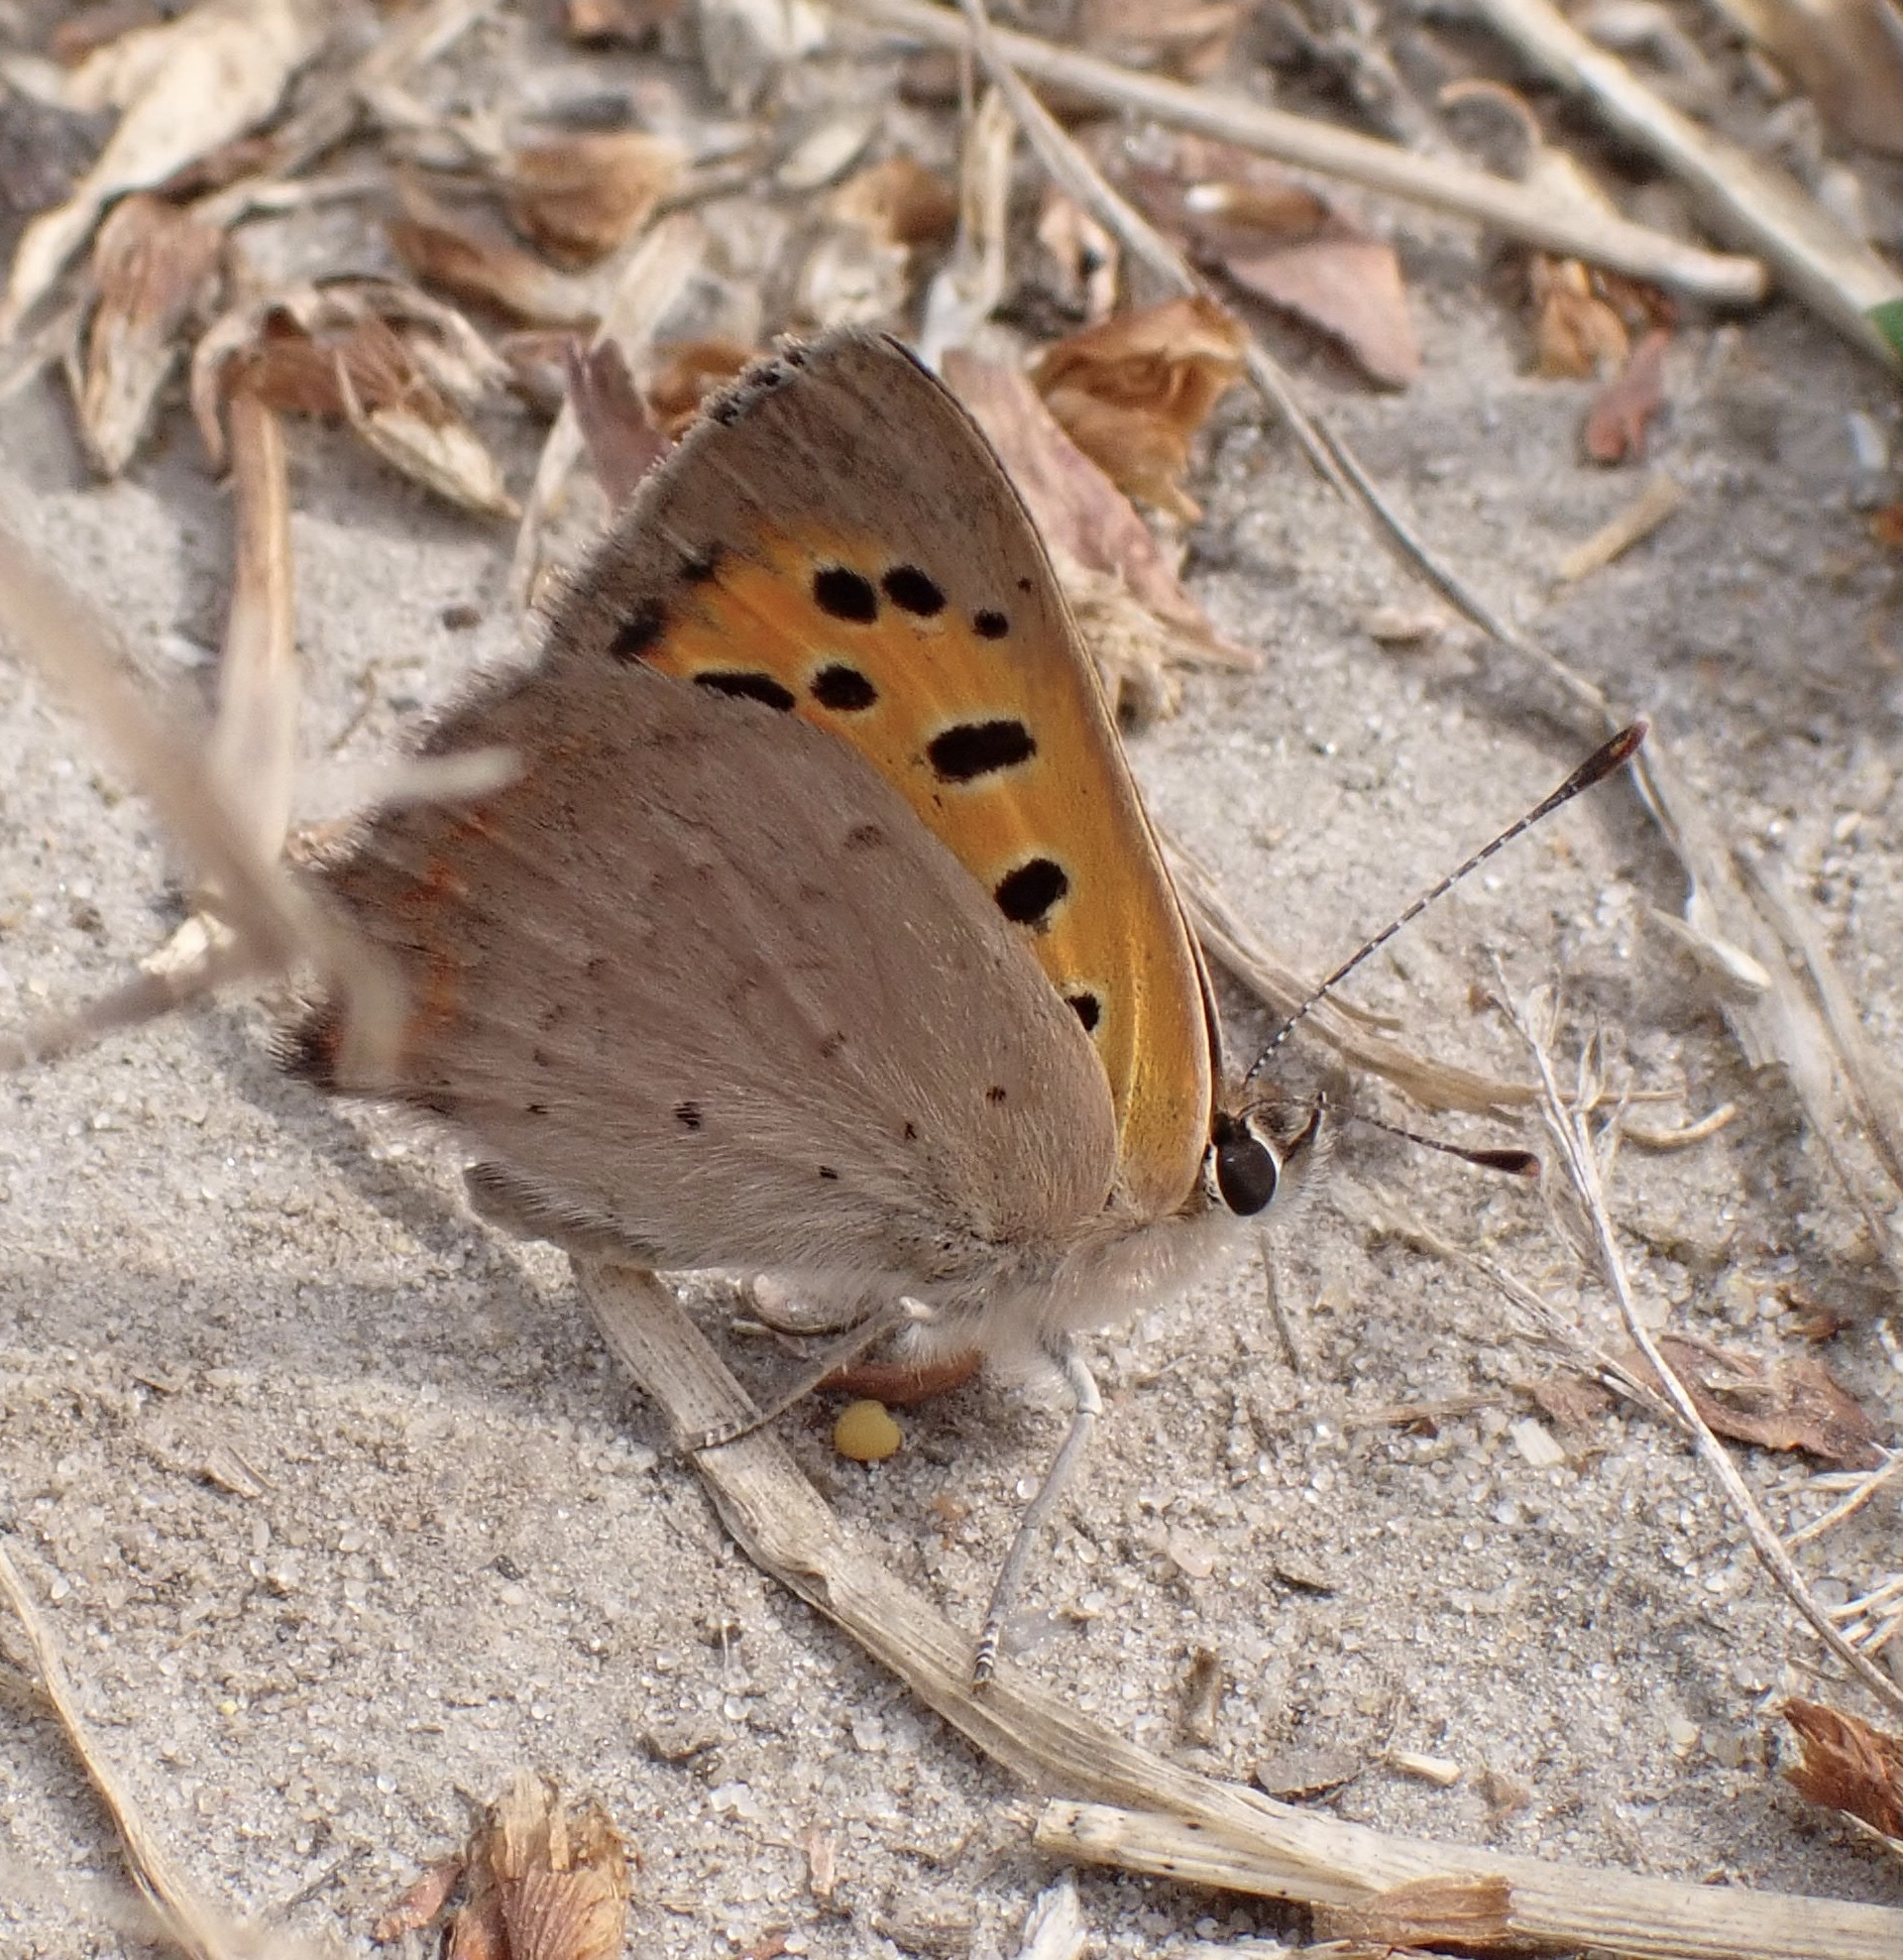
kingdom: Animalia
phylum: Arthropoda
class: Insecta
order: Lepidoptera
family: Lycaenidae
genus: Lycaena
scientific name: Lycaena phlaeas
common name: Small copper
